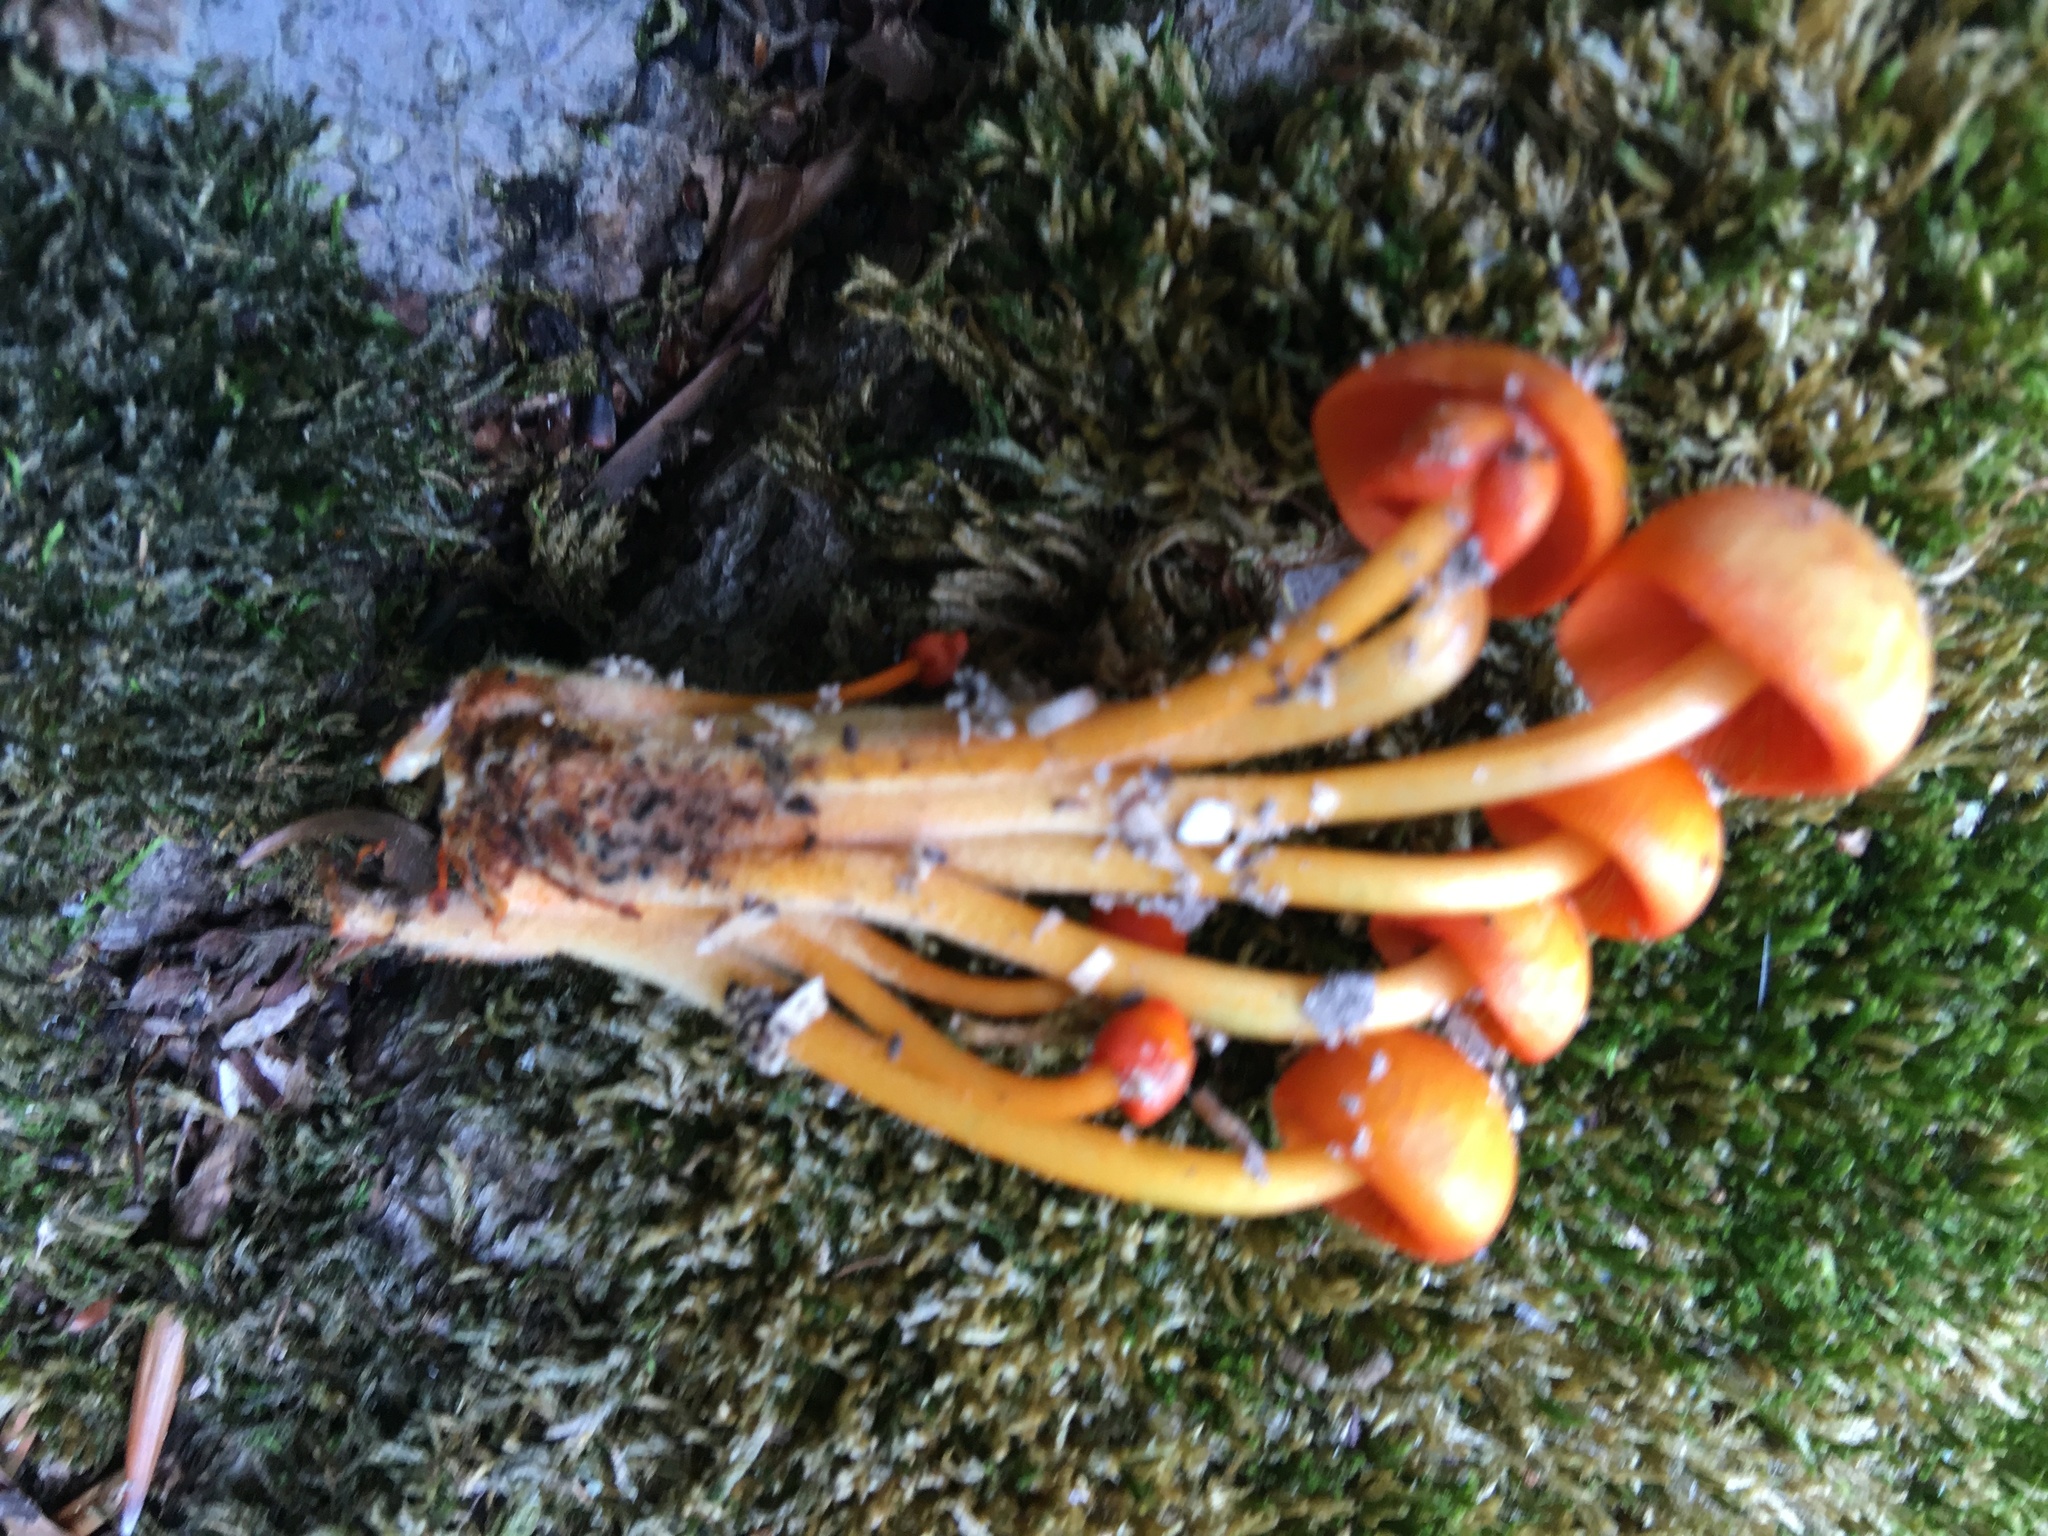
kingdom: Fungi
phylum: Basidiomycota
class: Agaricomycetes
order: Agaricales
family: Mycenaceae
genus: Mycena
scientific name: Mycena leaiana
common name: Orange mycena
